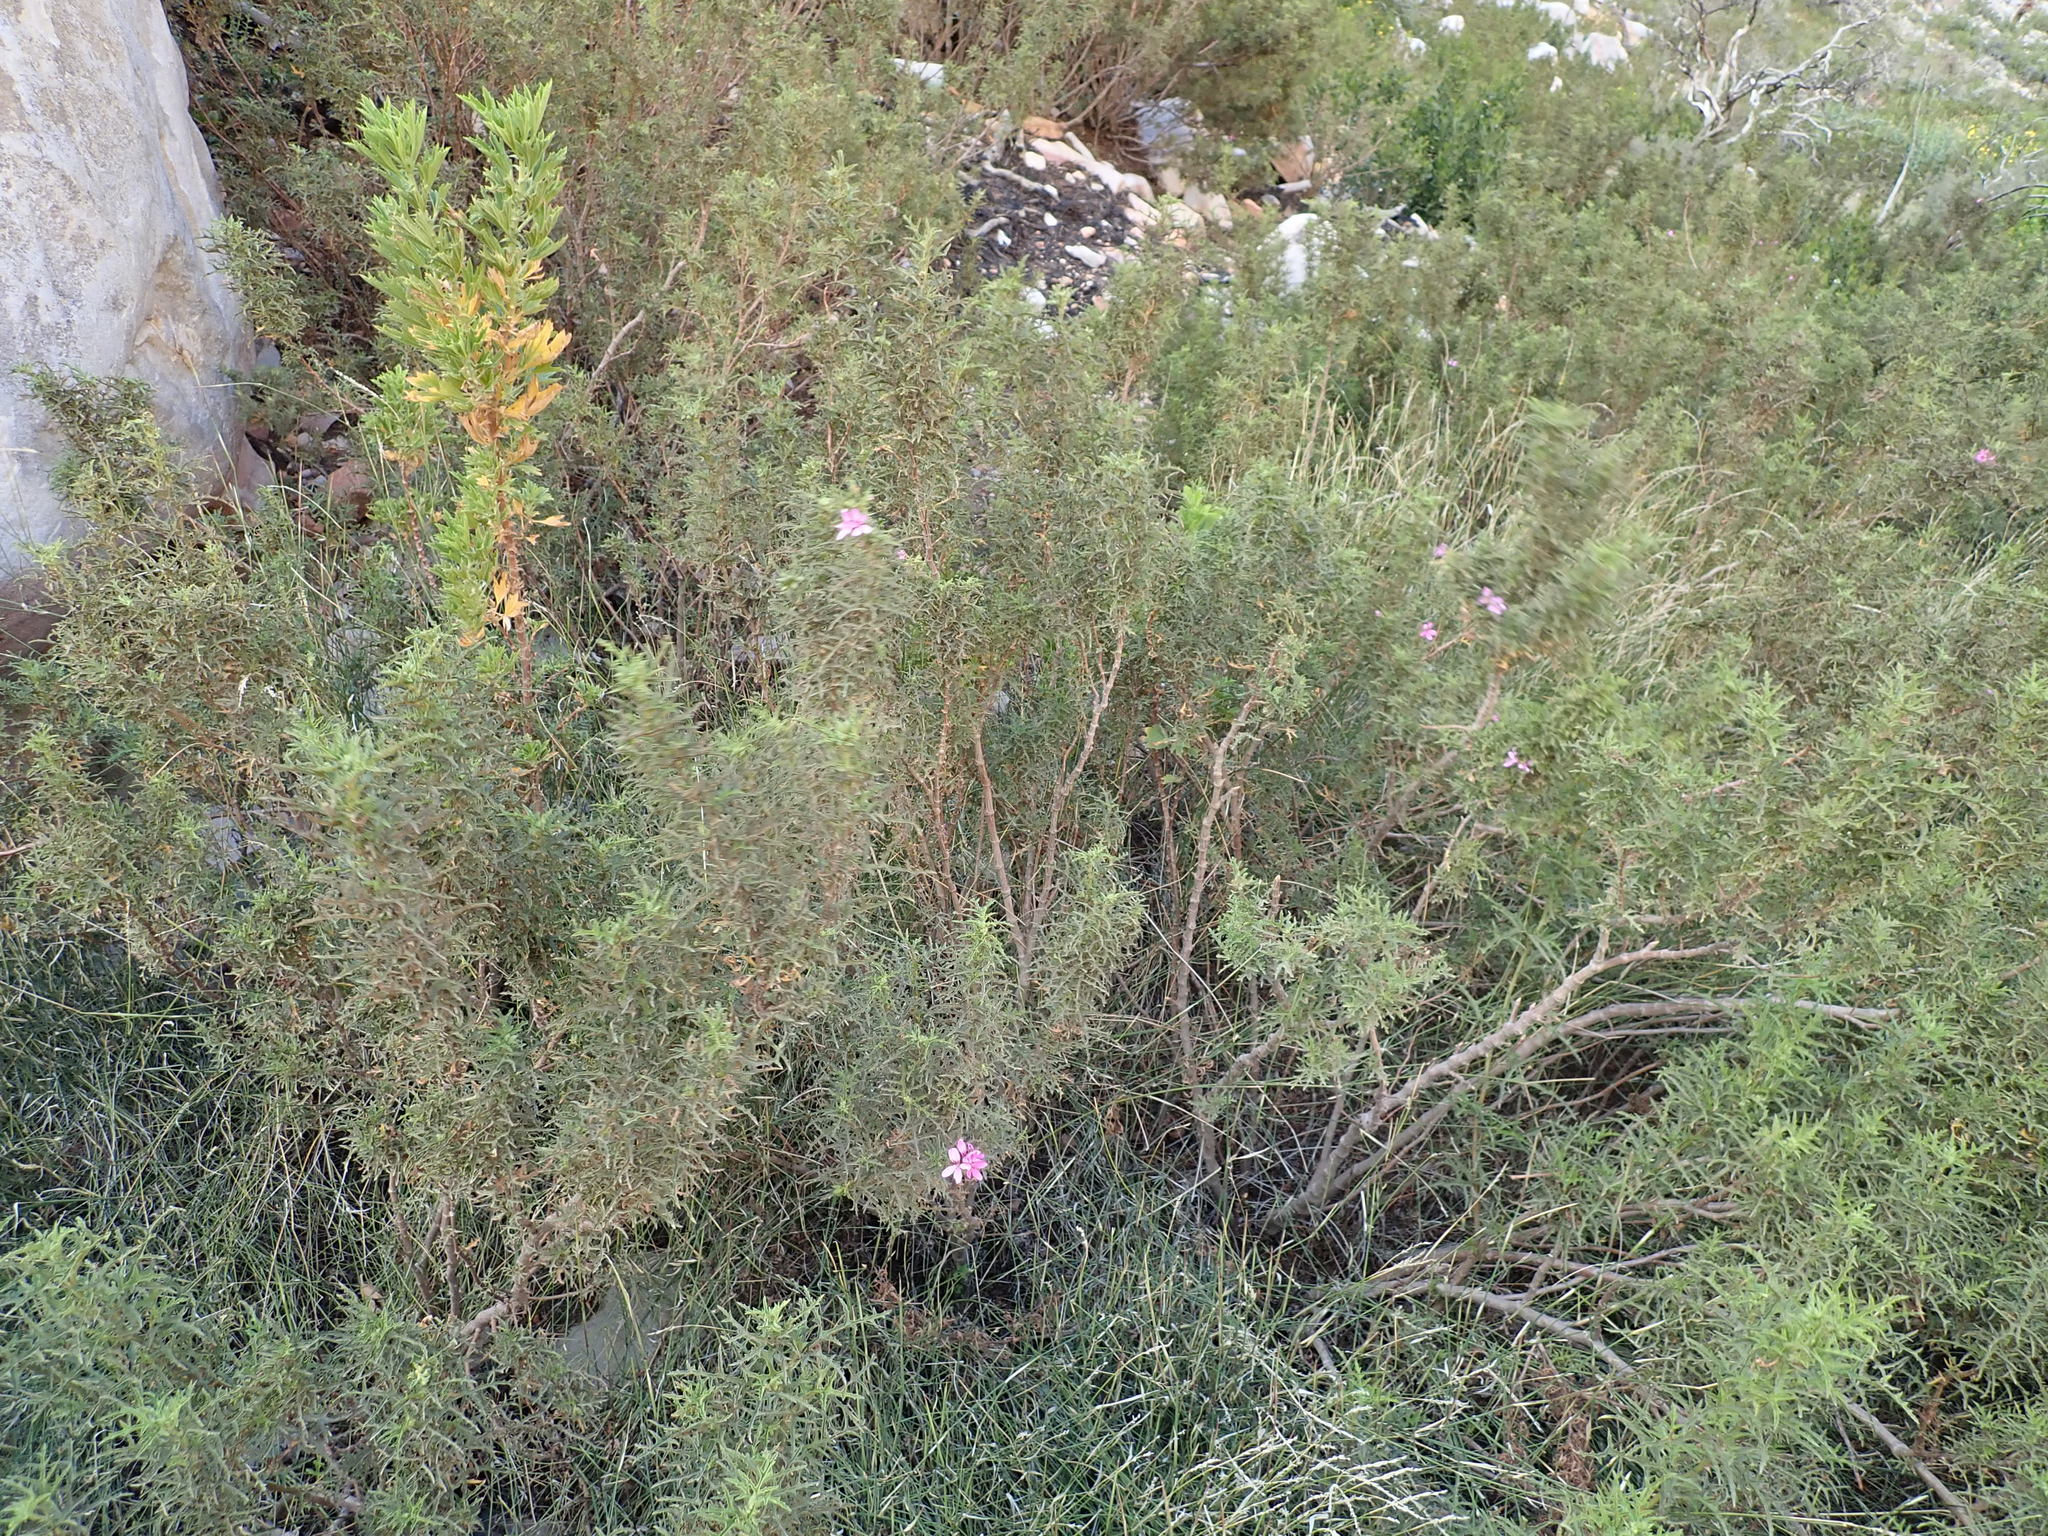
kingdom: Plantae
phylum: Tracheophyta
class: Magnoliopsida
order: Geraniales
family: Geraniaceae
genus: Pelargonium
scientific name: Pelargonium glutinosum
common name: Pheasant-foot geranium
